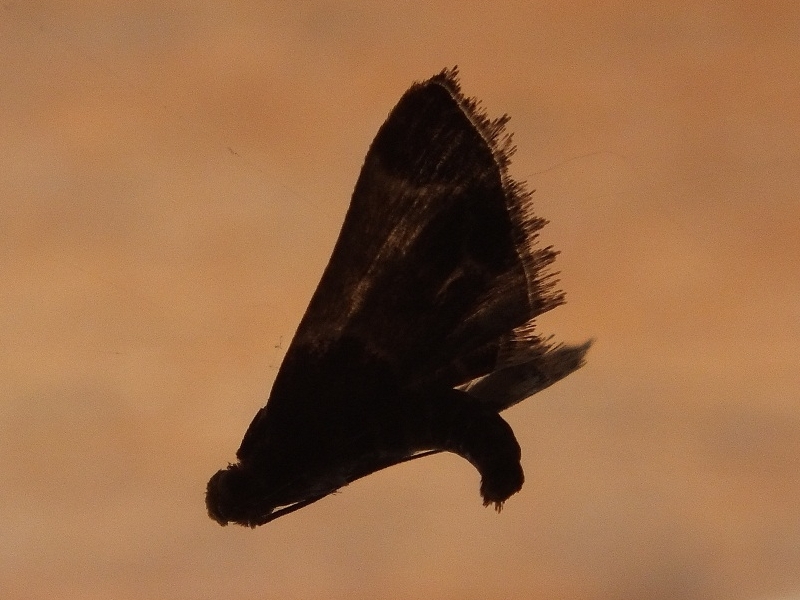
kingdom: Animalia
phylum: Arthropoda
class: Insecta
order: Lepidoptera
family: Pyralidae
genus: Pyralis
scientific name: Pyralis farinalis
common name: Meal moth
